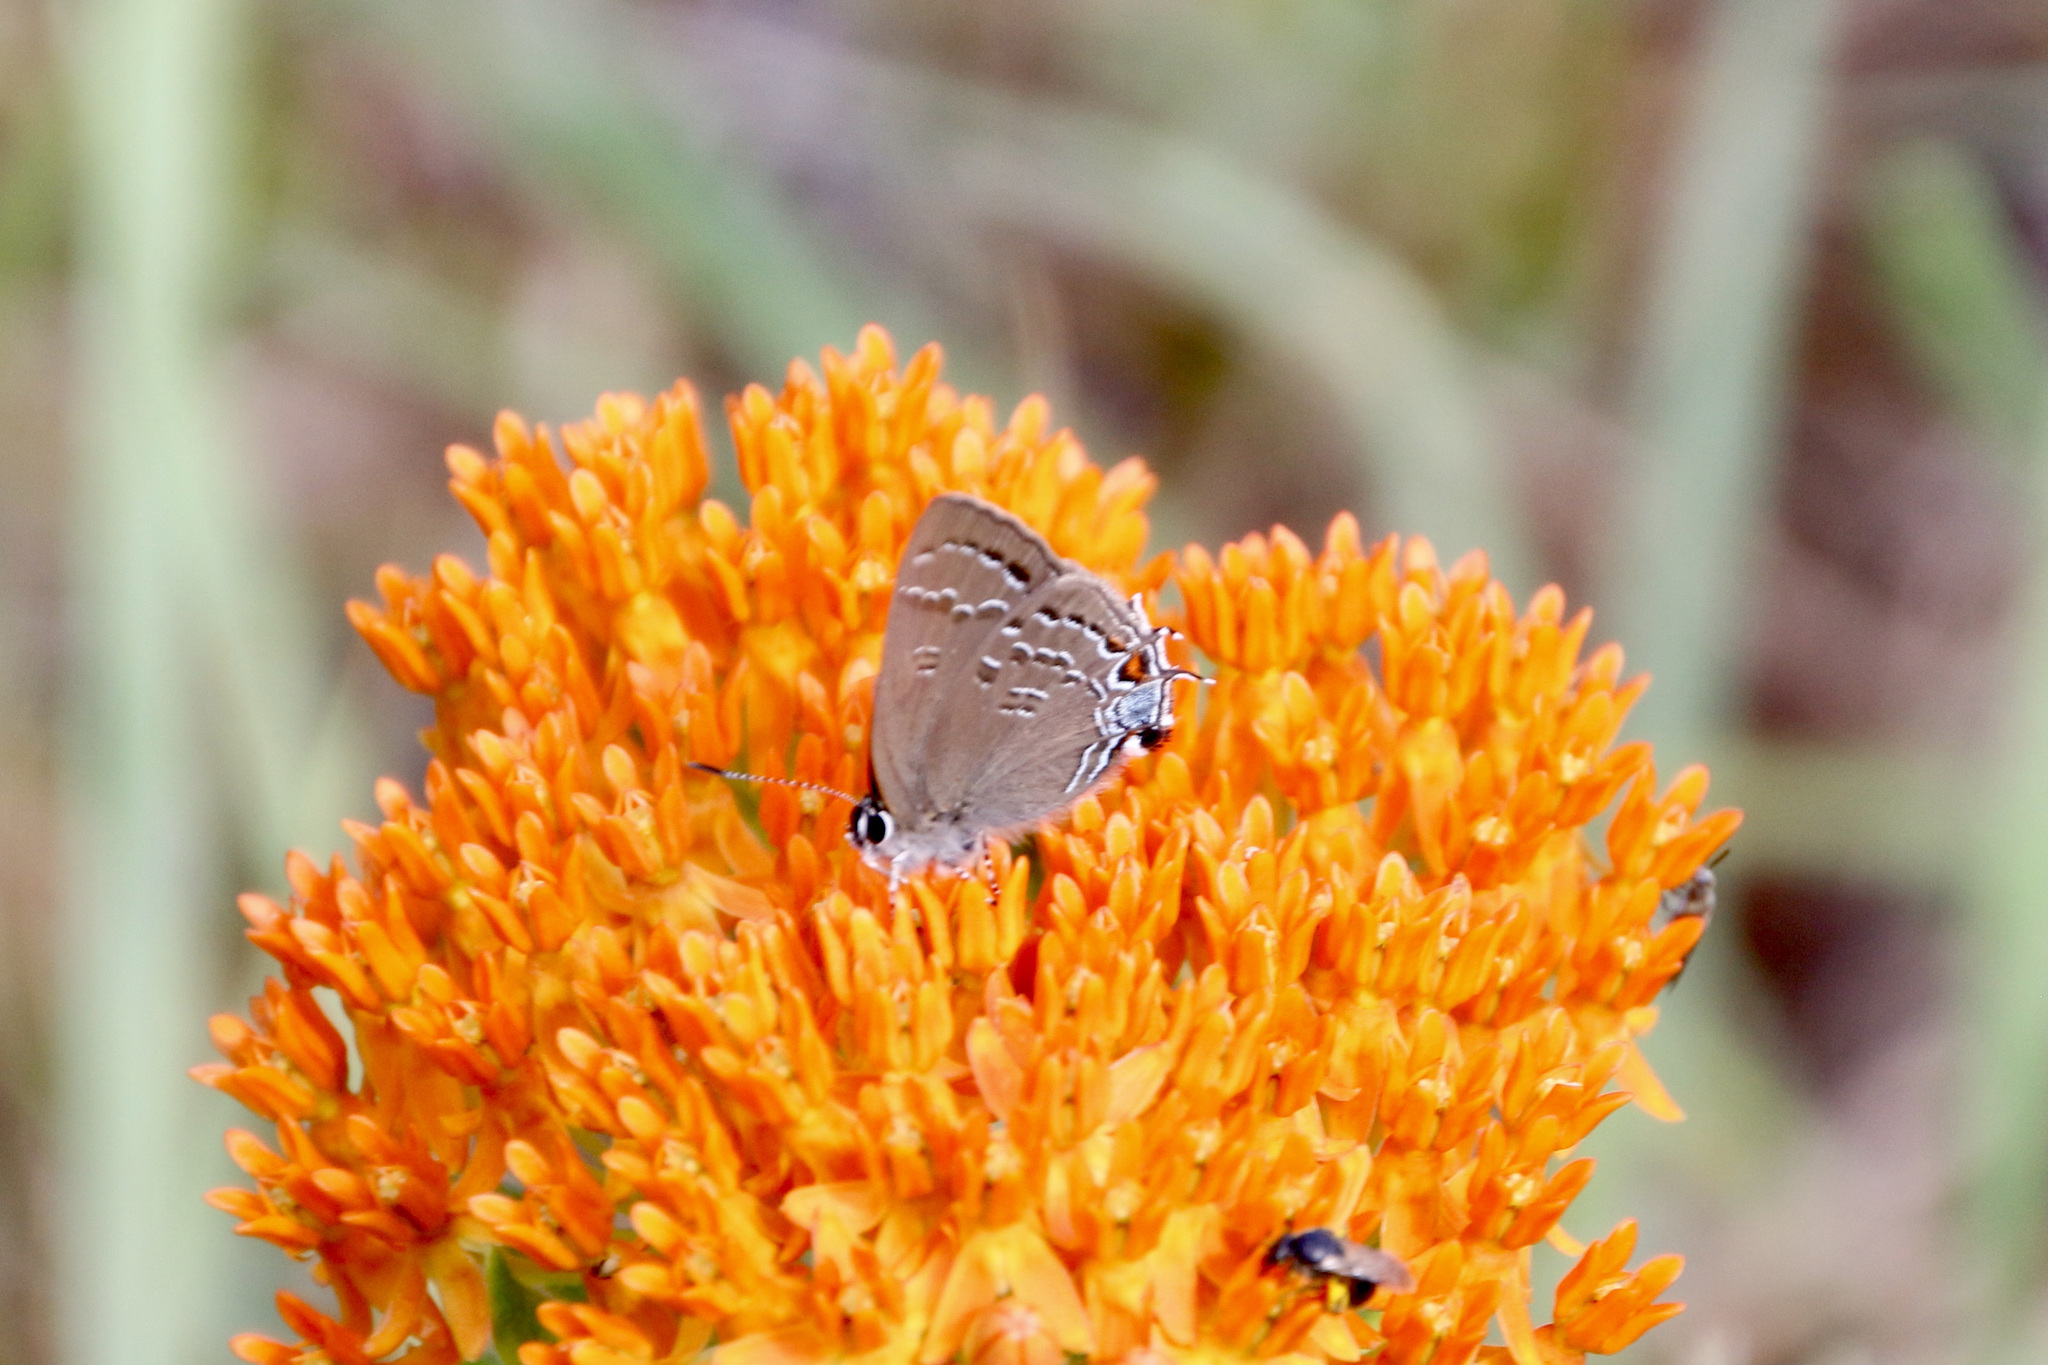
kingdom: Animalia
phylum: Arthropoda
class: Insecta
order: Lepidoptera
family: Lycaenidae
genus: Satyrium
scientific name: Satyrium calanus
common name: Banded hairstreak
